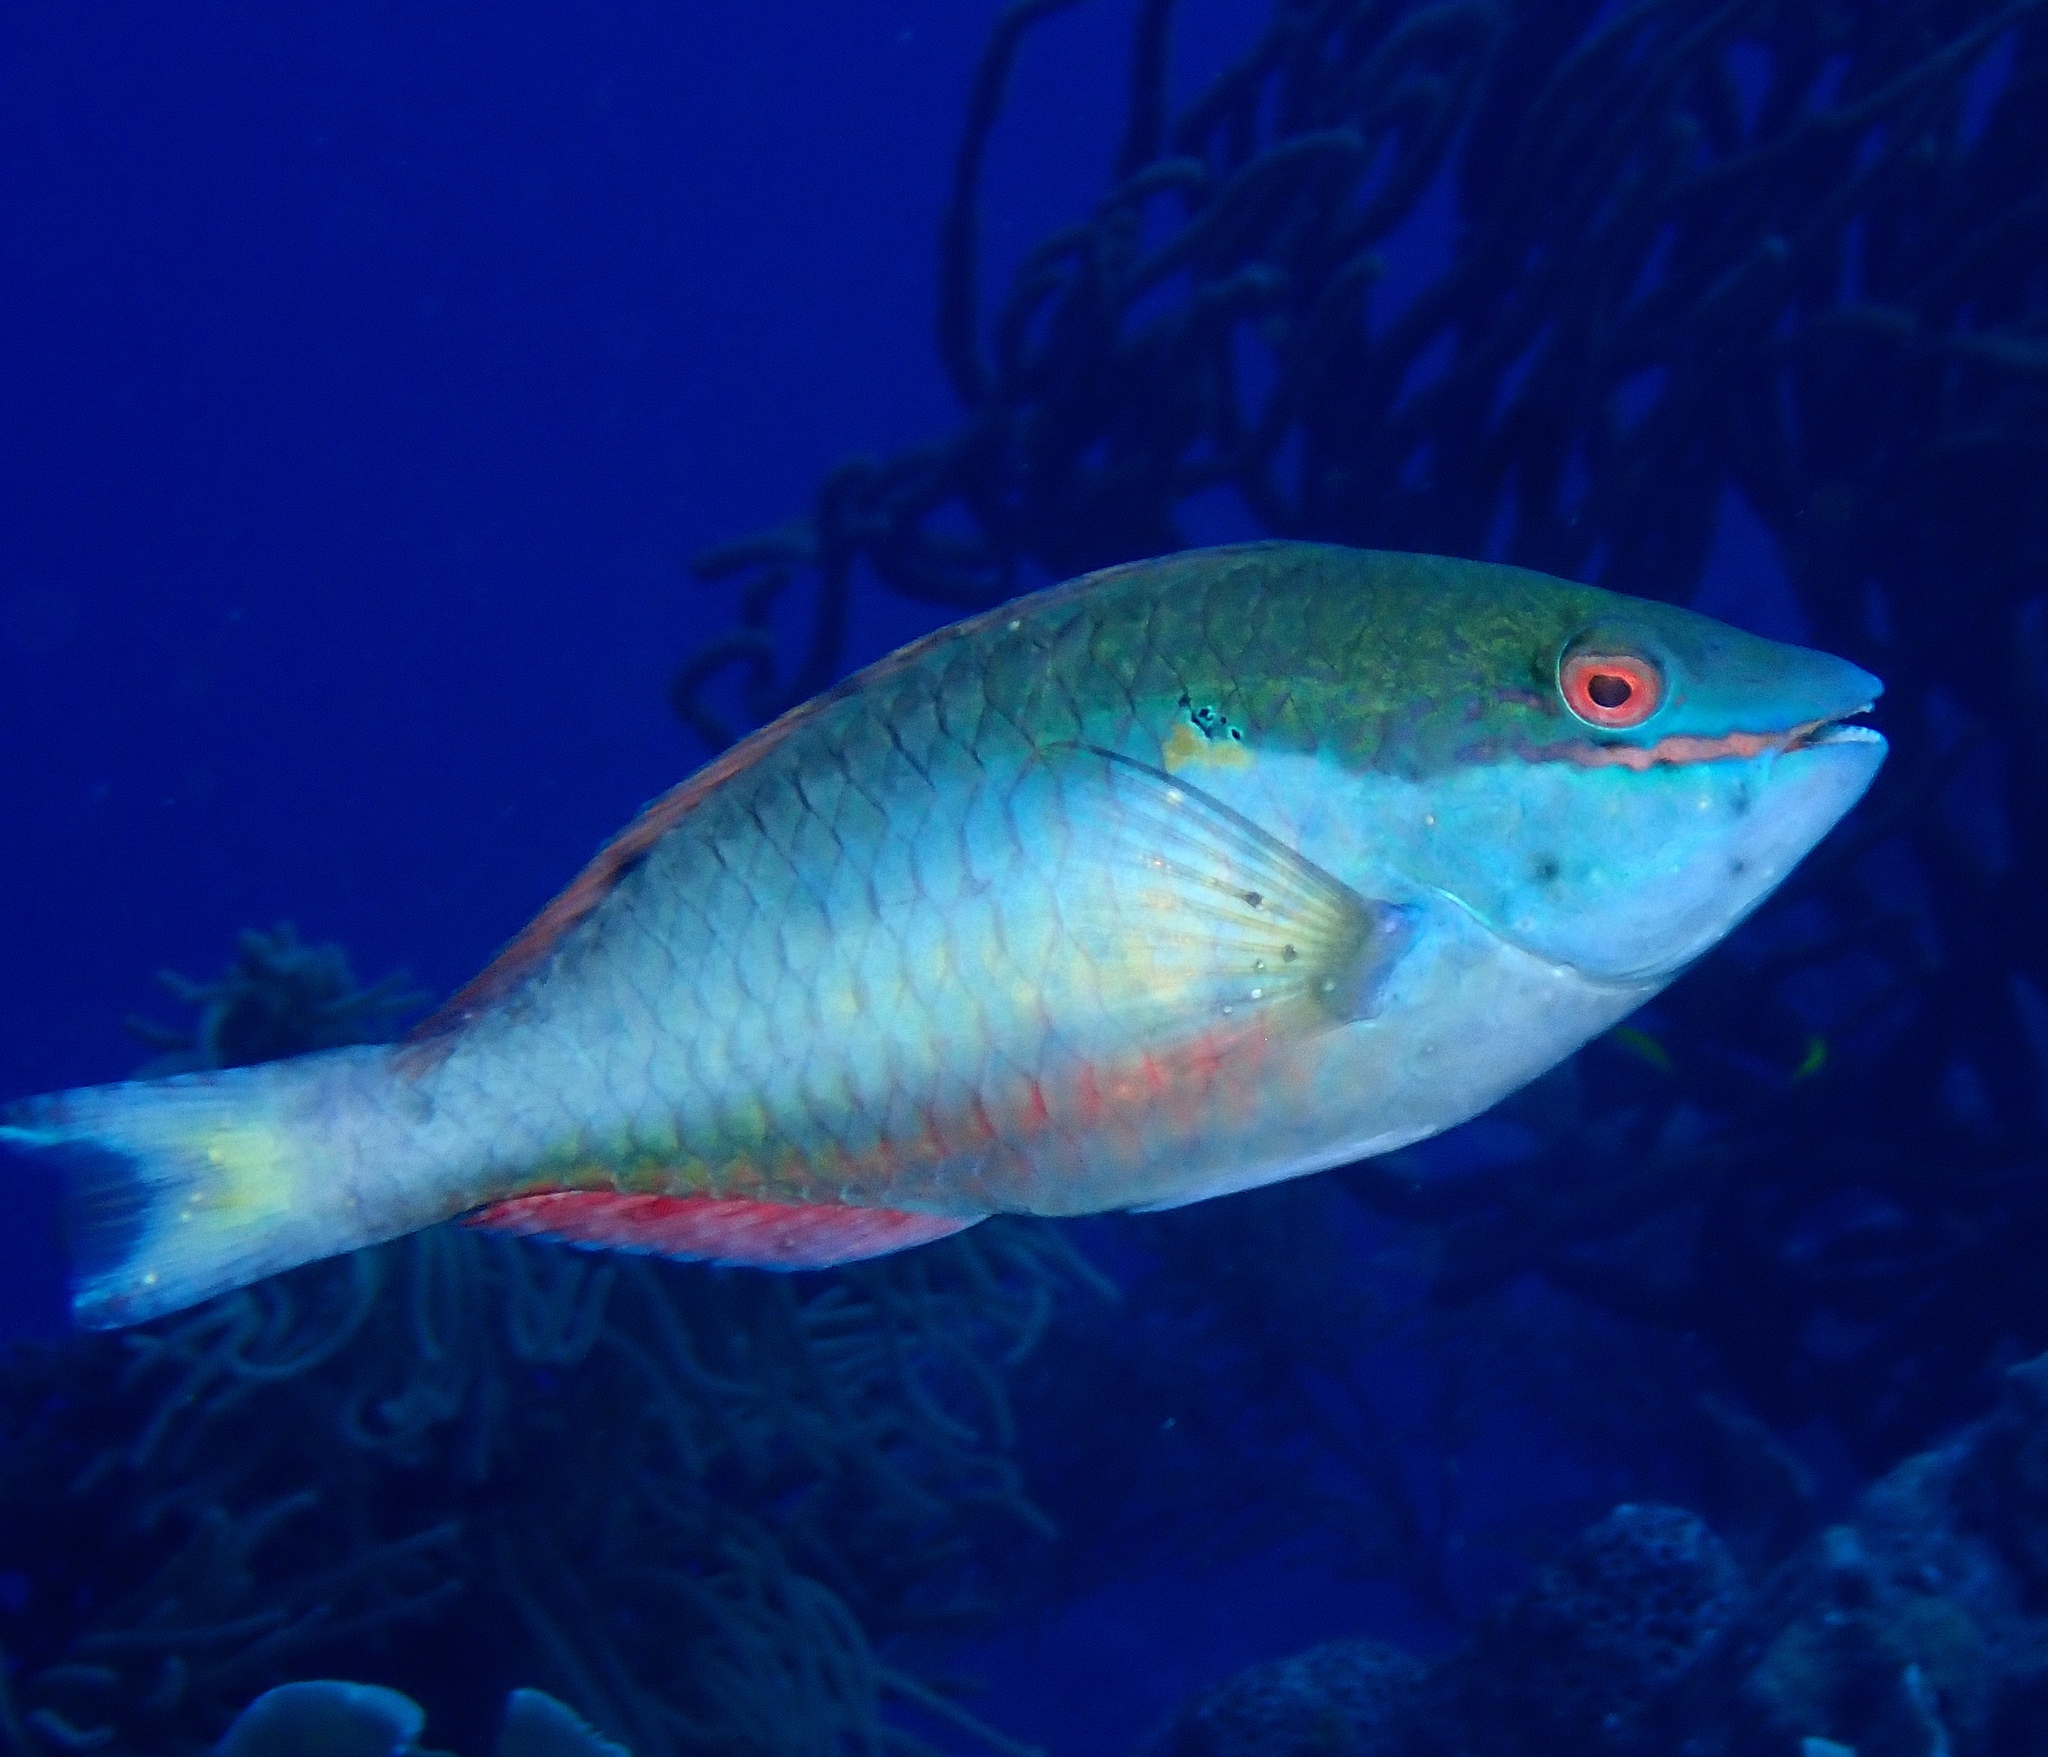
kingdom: Animalia
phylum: Chordata
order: Perciformes
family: Scaridae
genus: Sparisoma
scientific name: Sparisoma aurofrenatum
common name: Redband parrotfish
